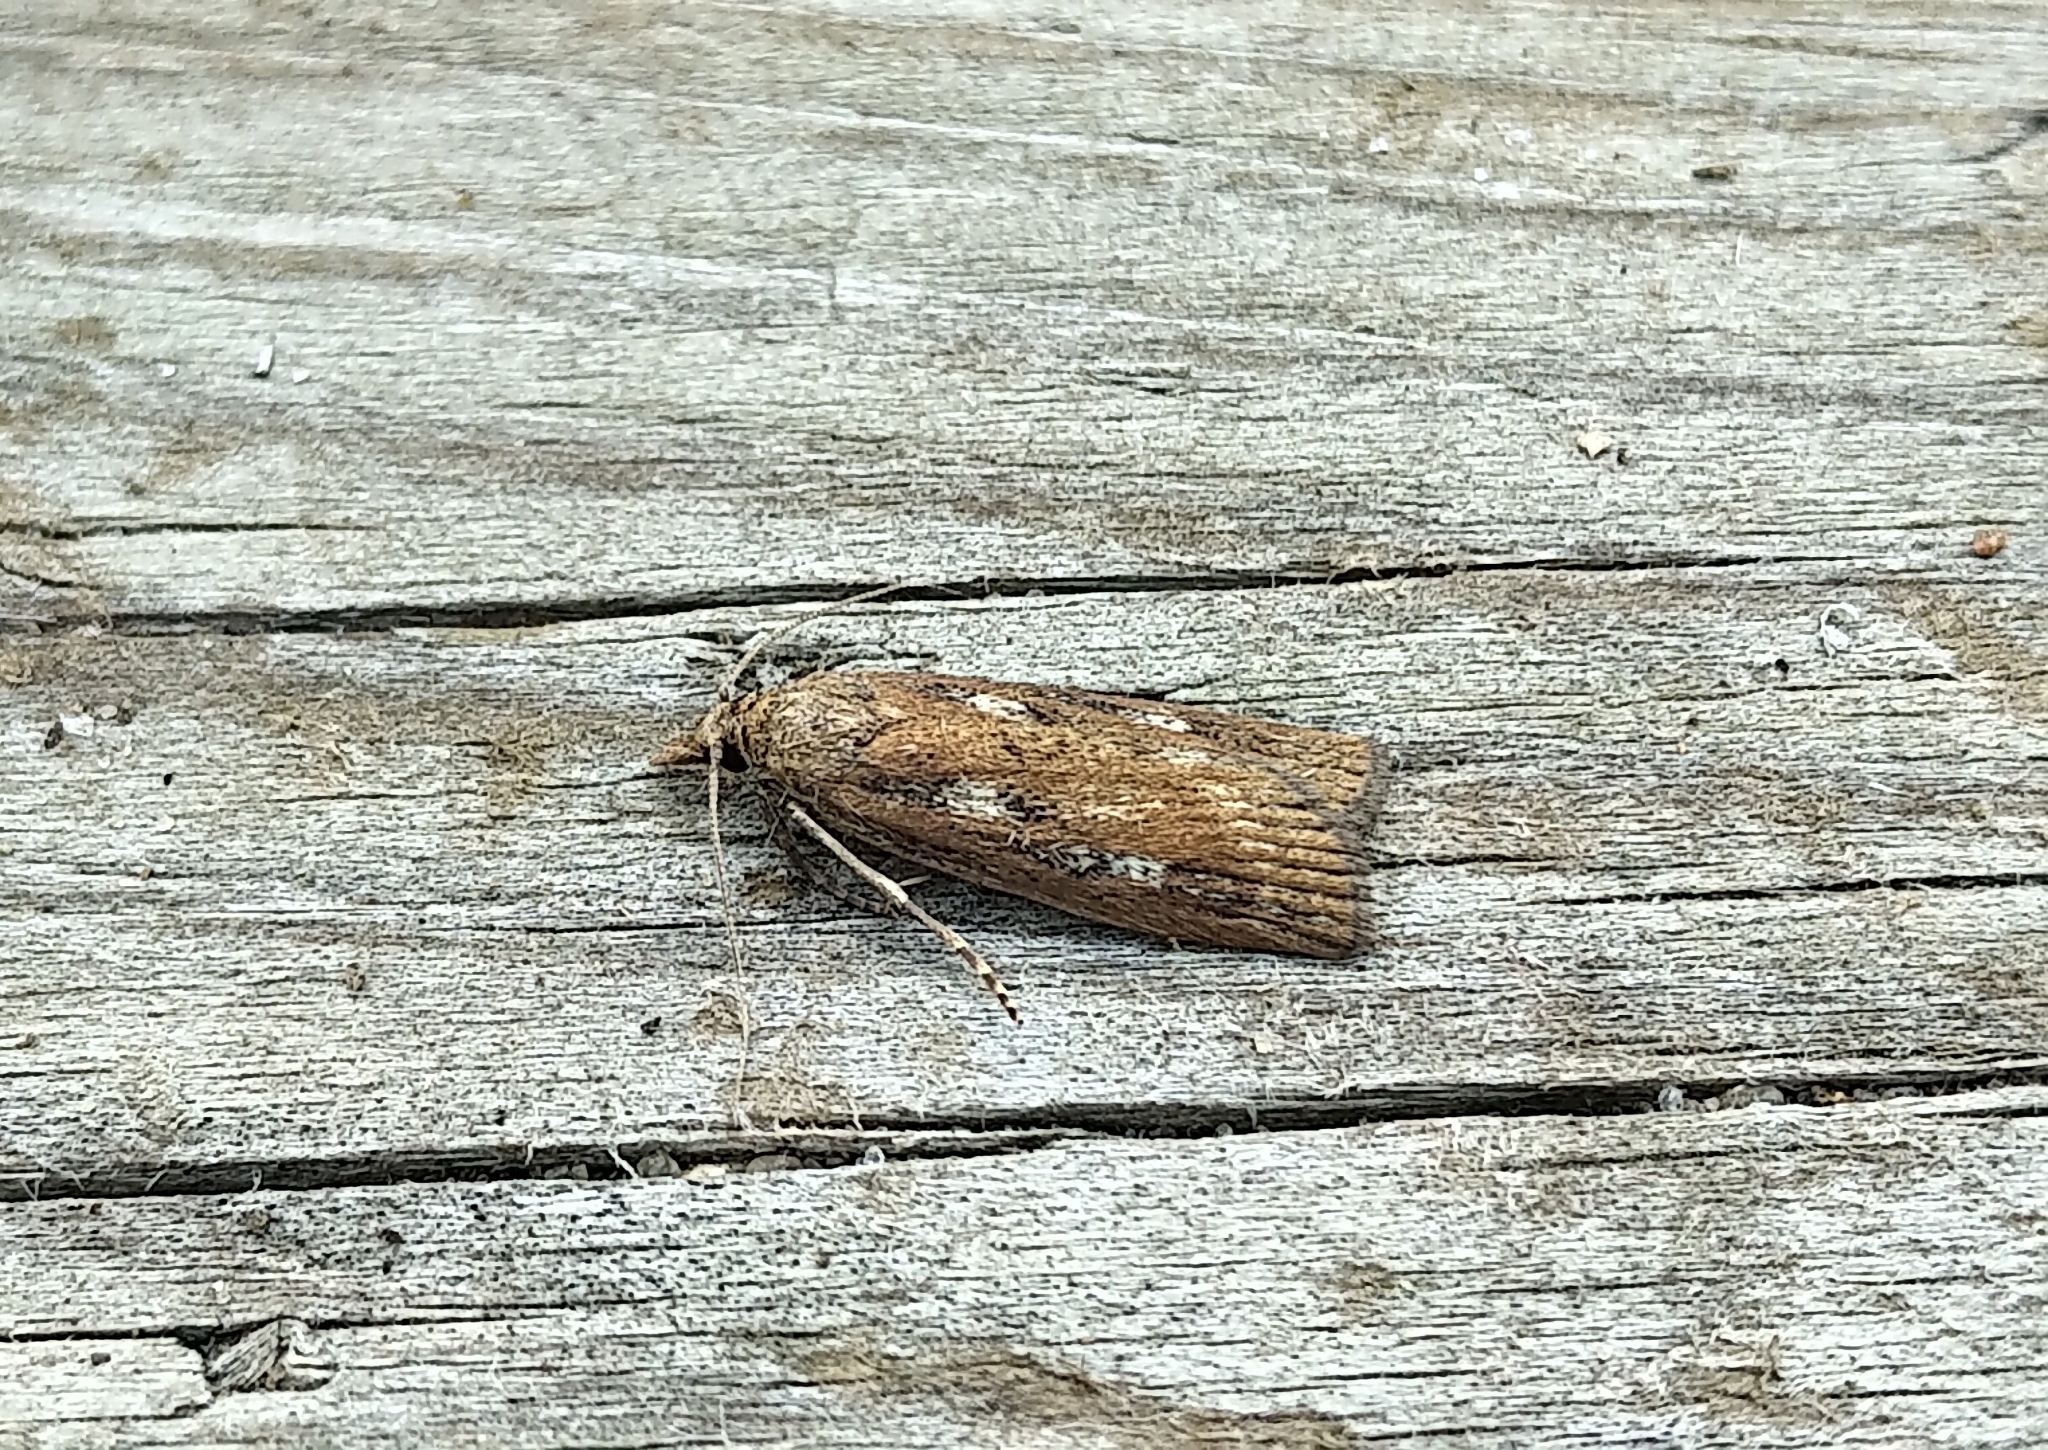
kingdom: Animalia
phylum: Arthropoda
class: Insecta
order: Lepidoptera
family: Crambidae
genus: Occidentalia
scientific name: Occidentalia comptulatalis
